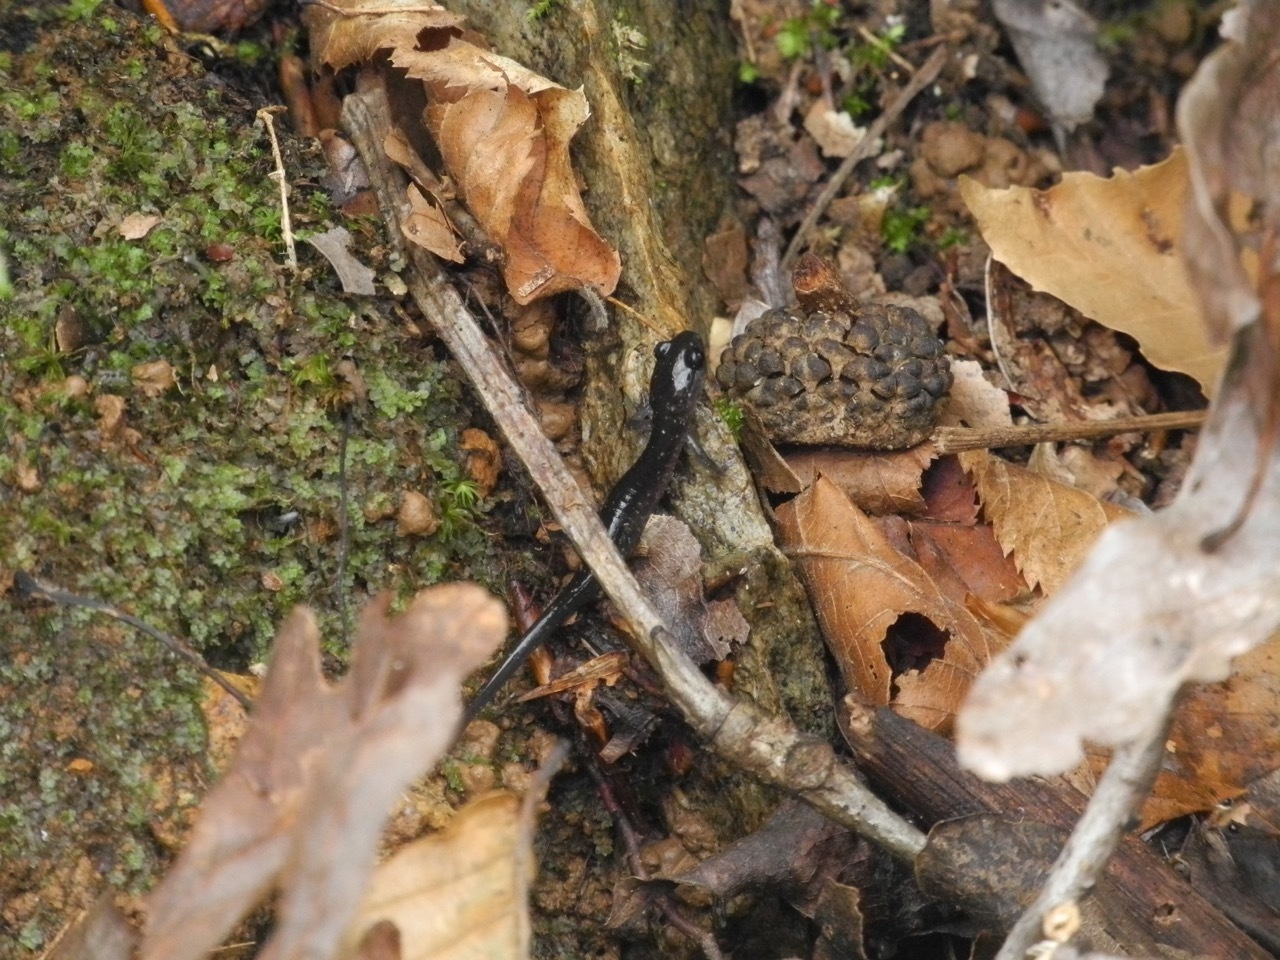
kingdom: Animalia
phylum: Chordata
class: Amphibia
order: Caudata
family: Plethodontidae
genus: Plethodon
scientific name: Plethodon cylindraceus
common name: White-spotted slimy salamander
